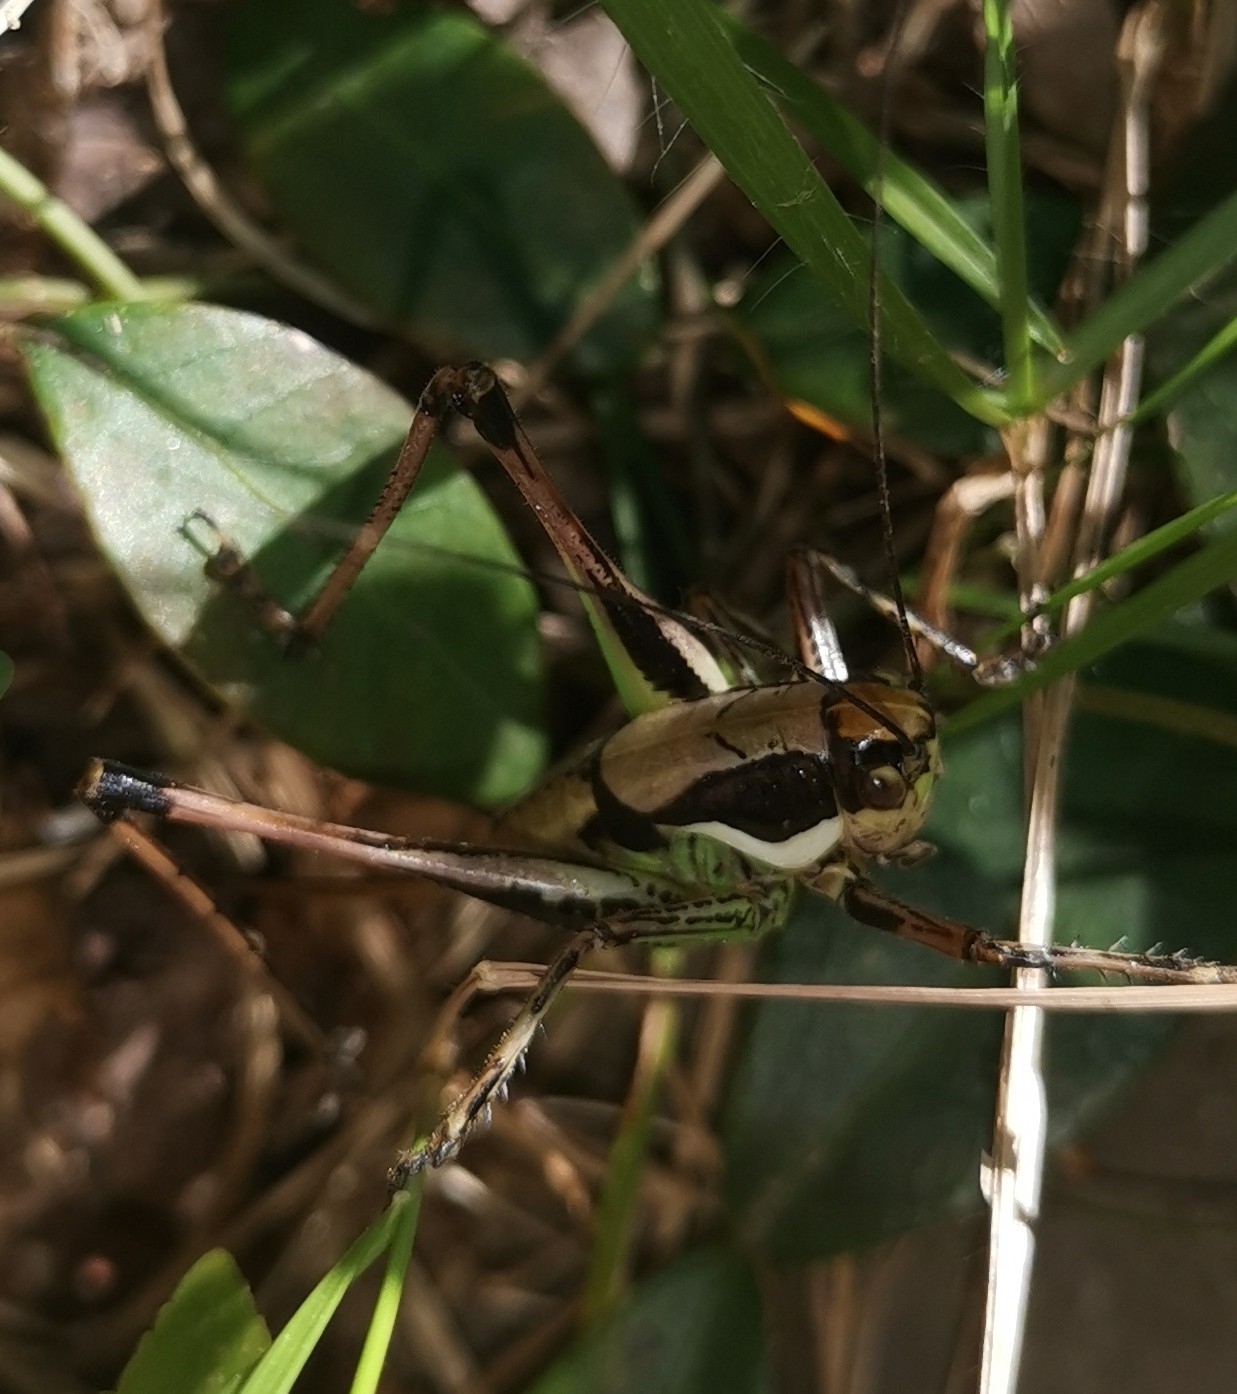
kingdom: Animalia
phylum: Arthropoda
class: Insecta
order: Orthoptera
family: Tettigoniidae
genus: Eupholidoptera
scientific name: Eupholidoptera chabrieri
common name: Chabrier's marbled bush-cricket
